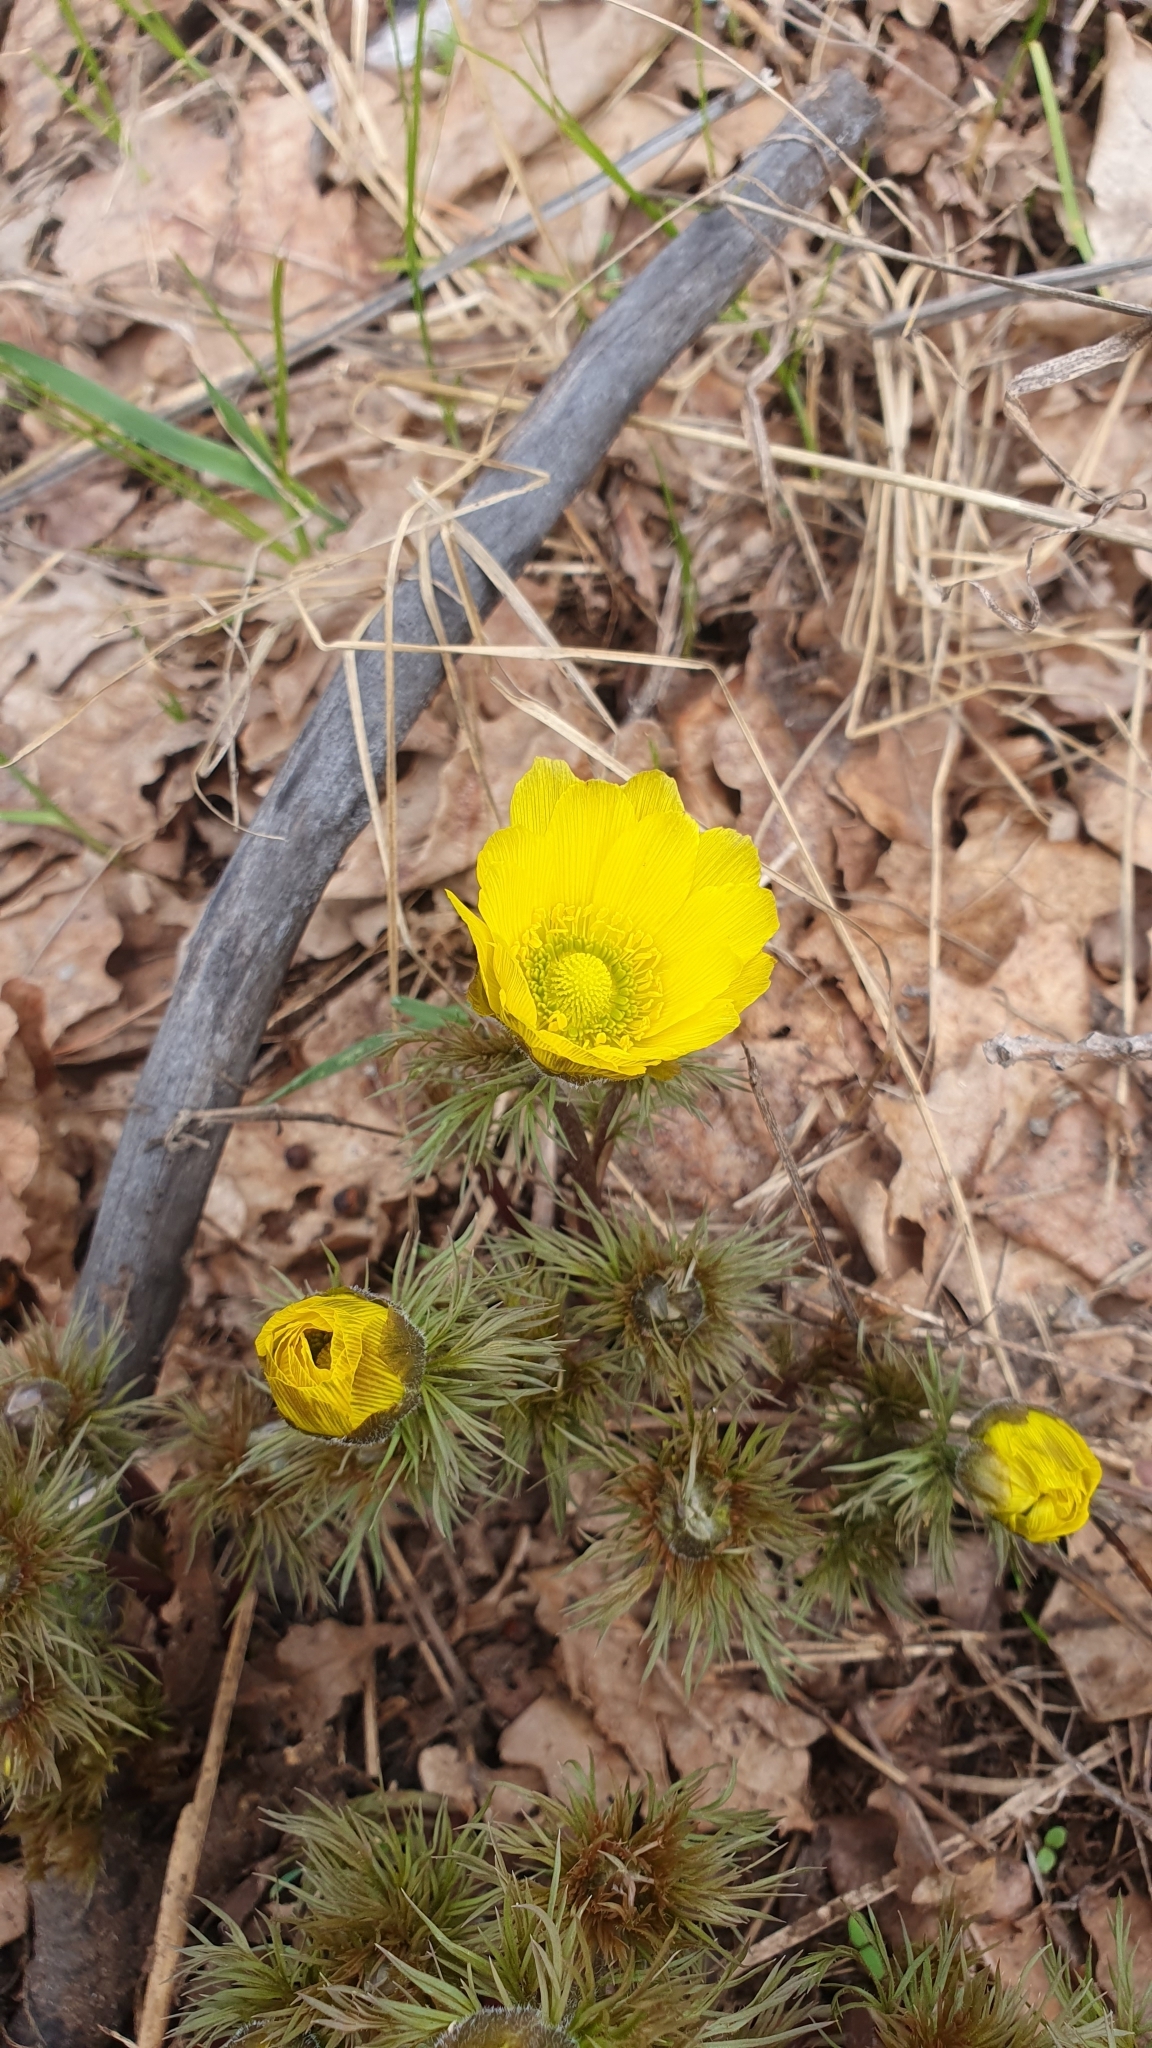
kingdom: Plantae
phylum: Tracheophyta
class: Magnoliopsida
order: Ranunculales
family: Ranunculaceae
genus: Adonis
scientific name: Adonis vernalis
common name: Yellow pheasants-eye
